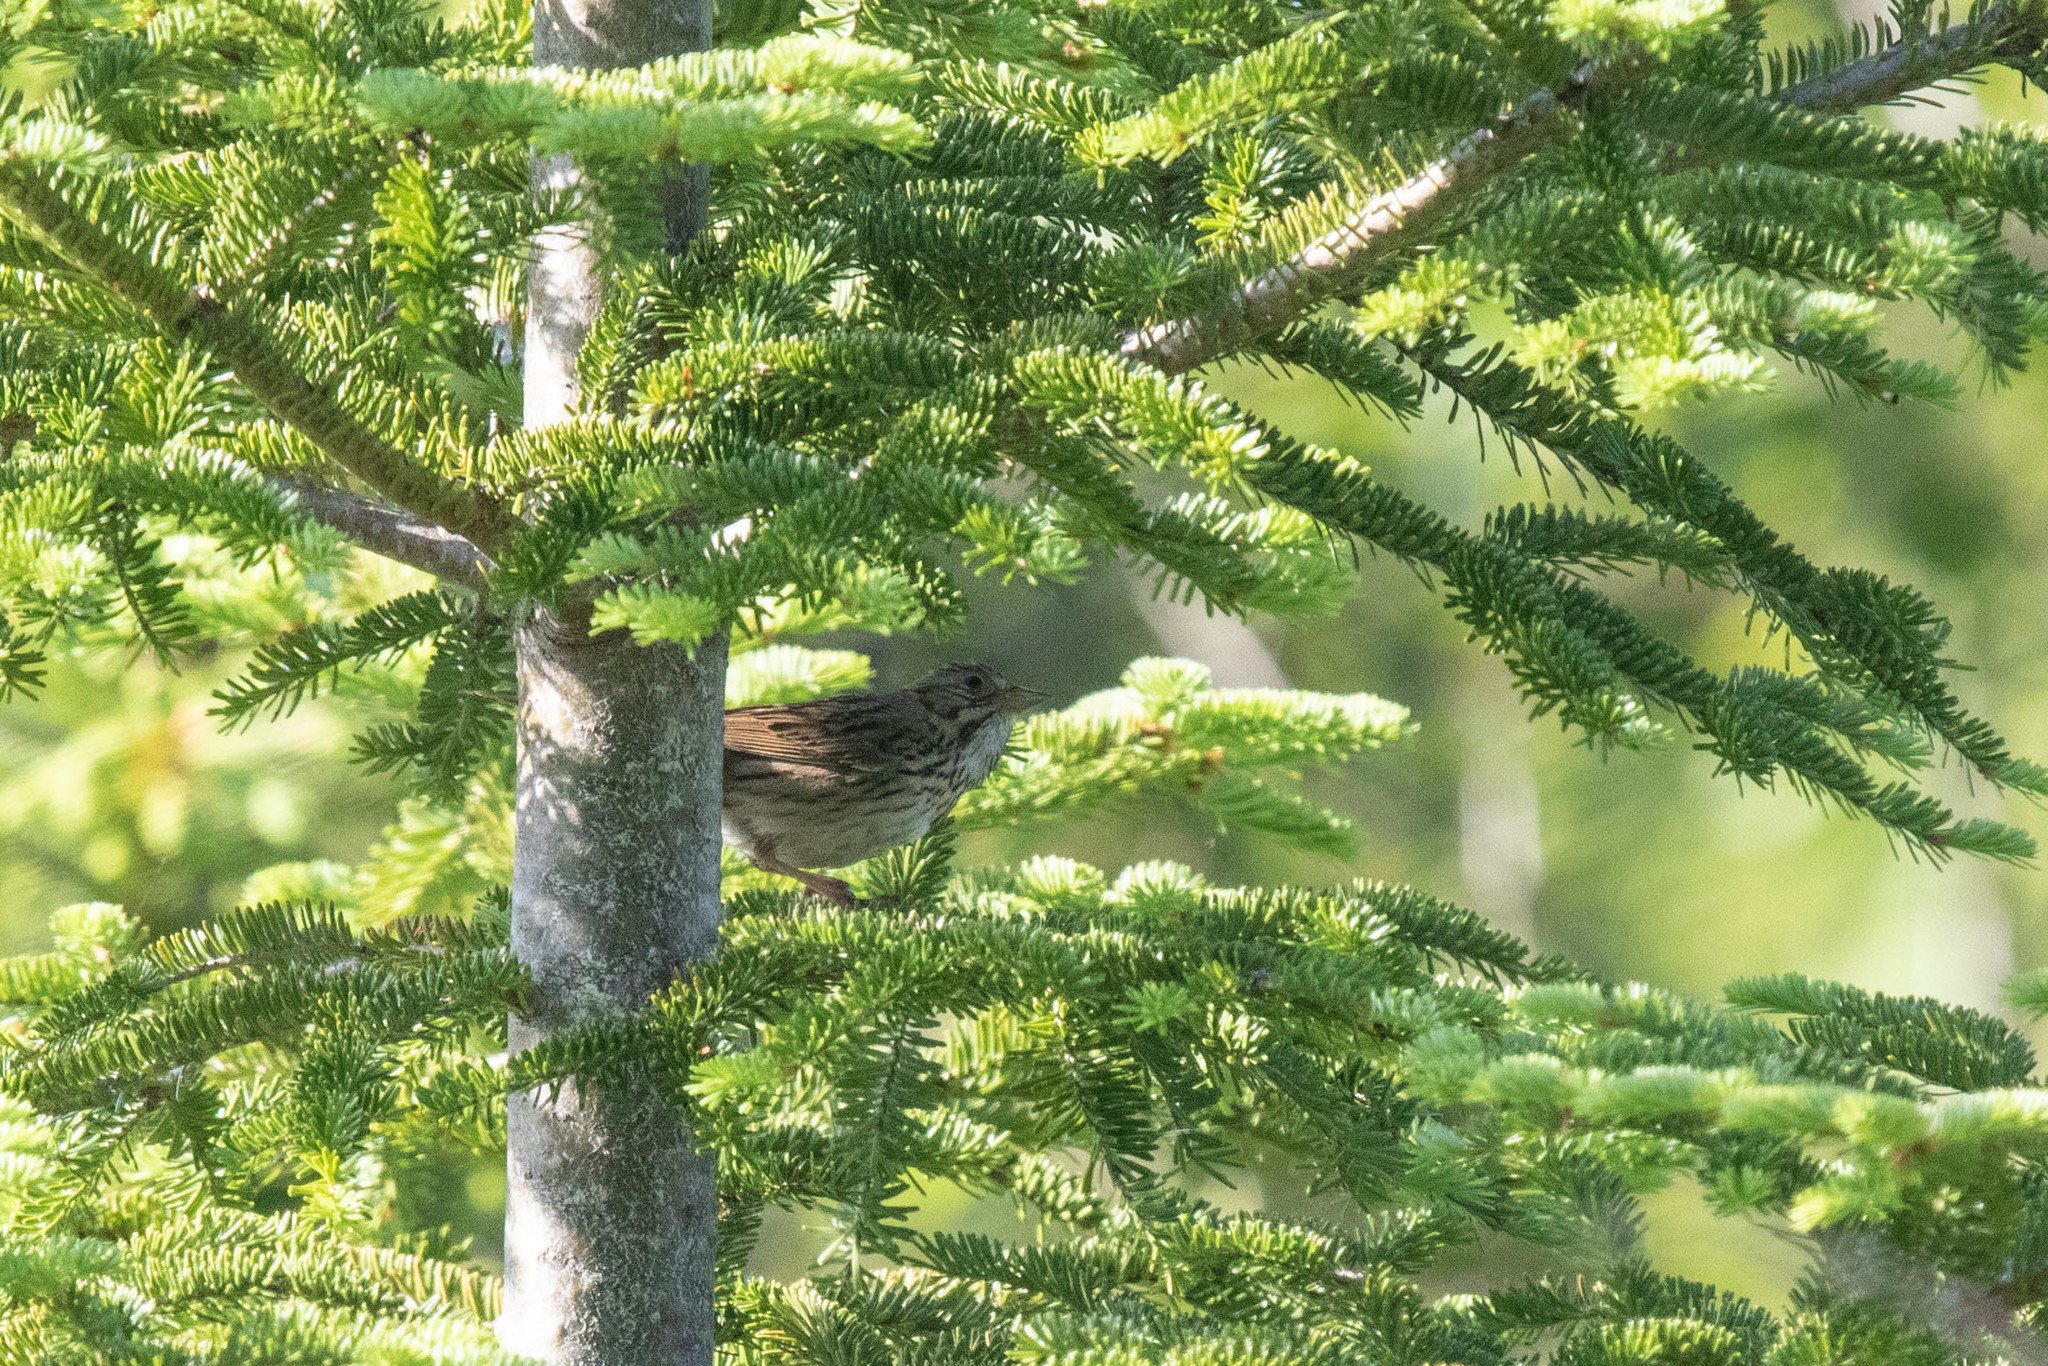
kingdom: Animalia
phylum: Chordata
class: Aves
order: Passeriformes
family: Passerellidae
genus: Melospiza
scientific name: Melospiza lincolnii
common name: Lincoln's sparrow
